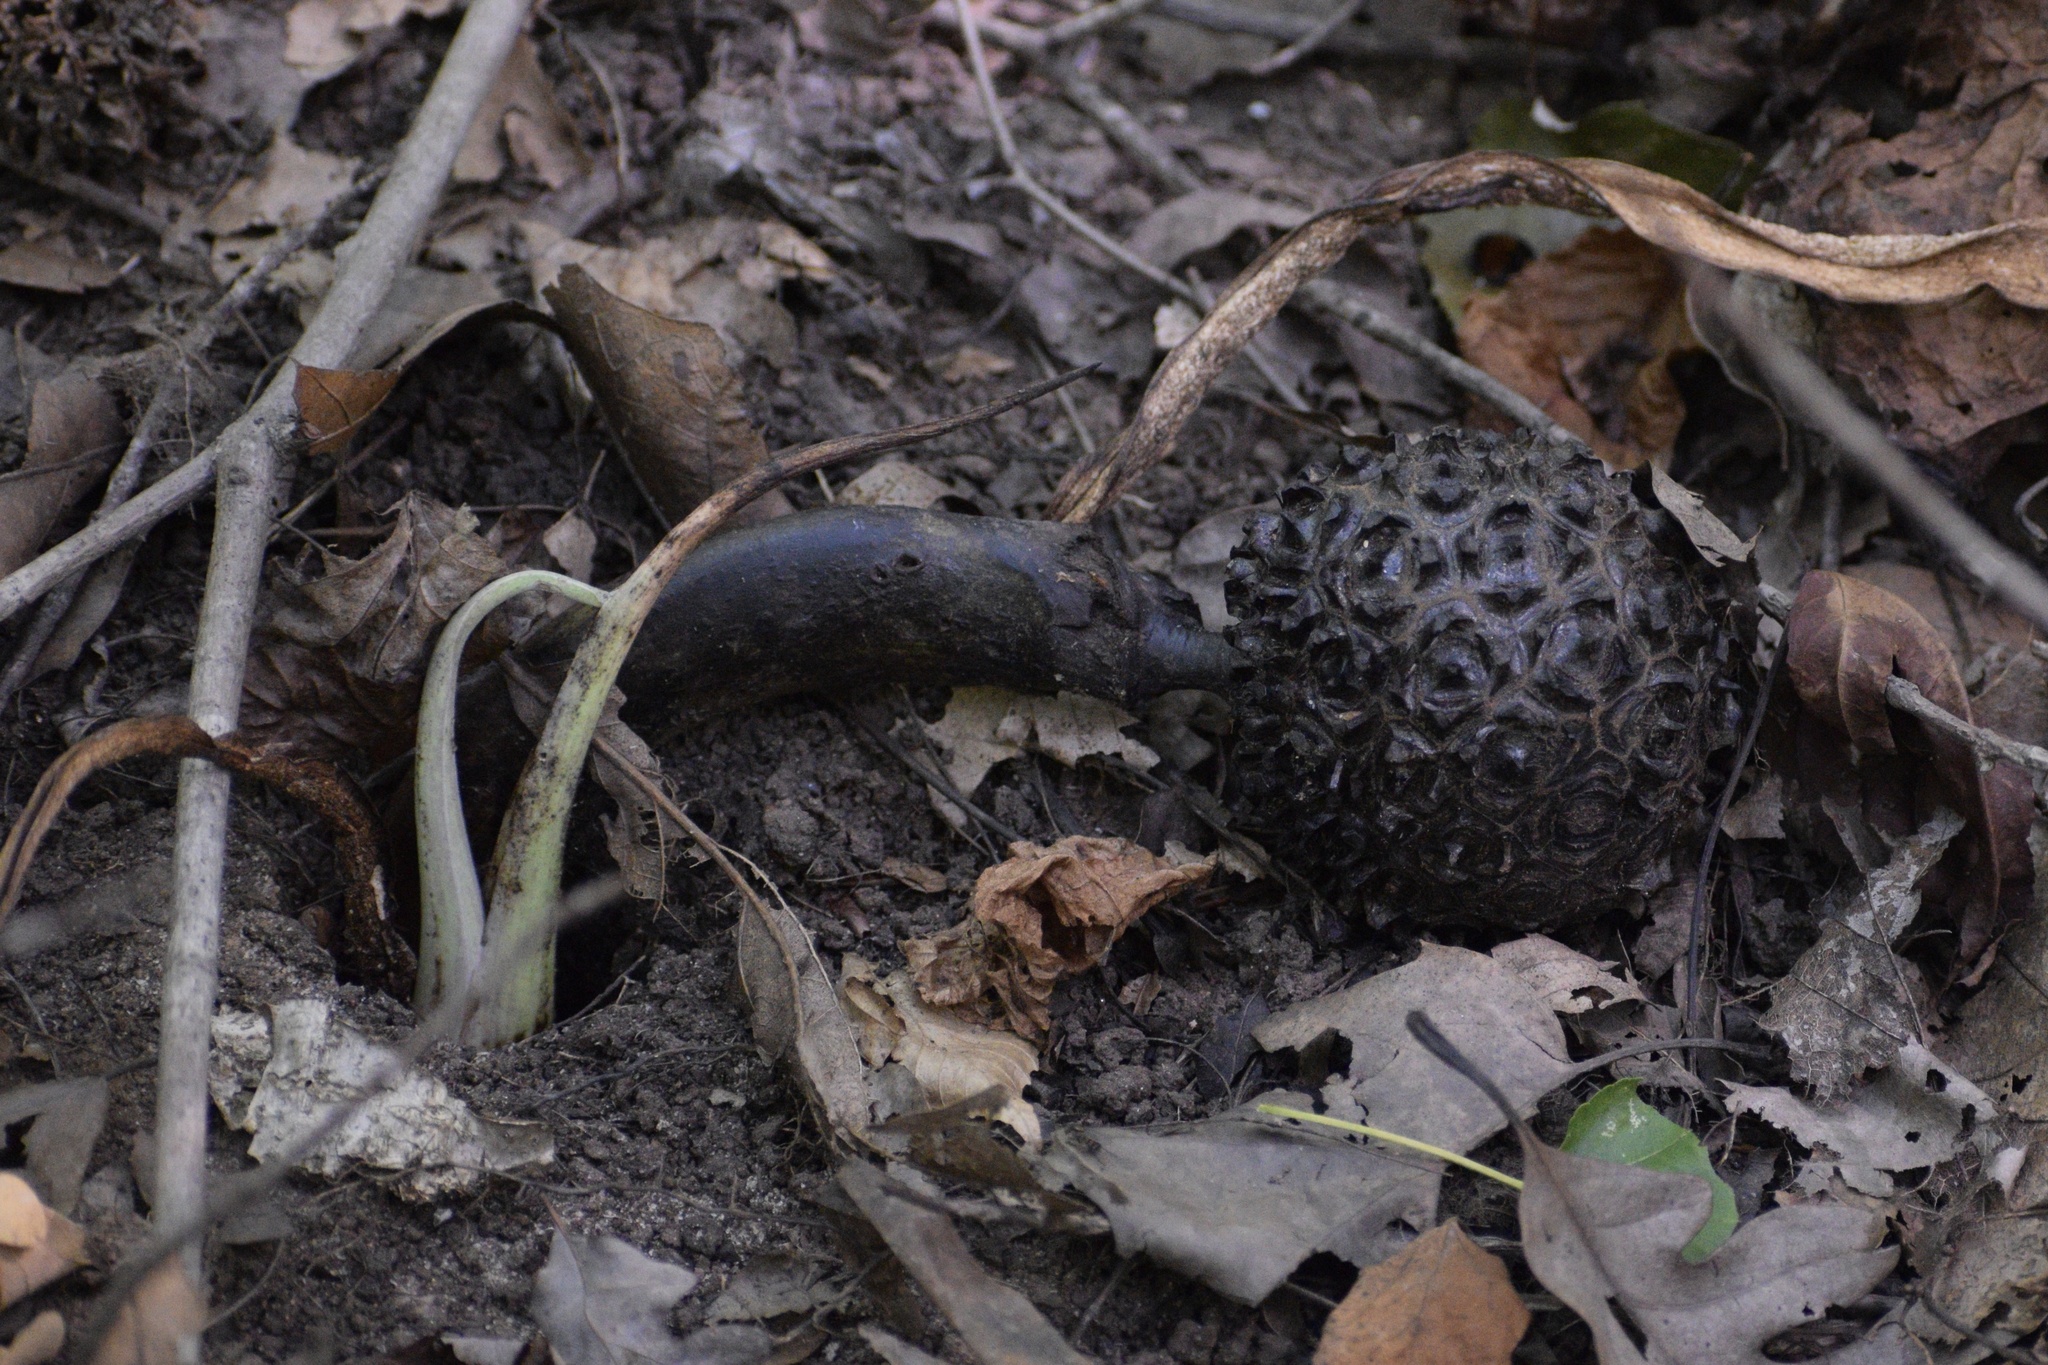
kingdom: Plantae
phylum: Tracheophyta
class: Liliopsida
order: Alismatales
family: Araceae
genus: Symplocarpus
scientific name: Symplocarpus foetidus
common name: Eastern skunk cabbage
